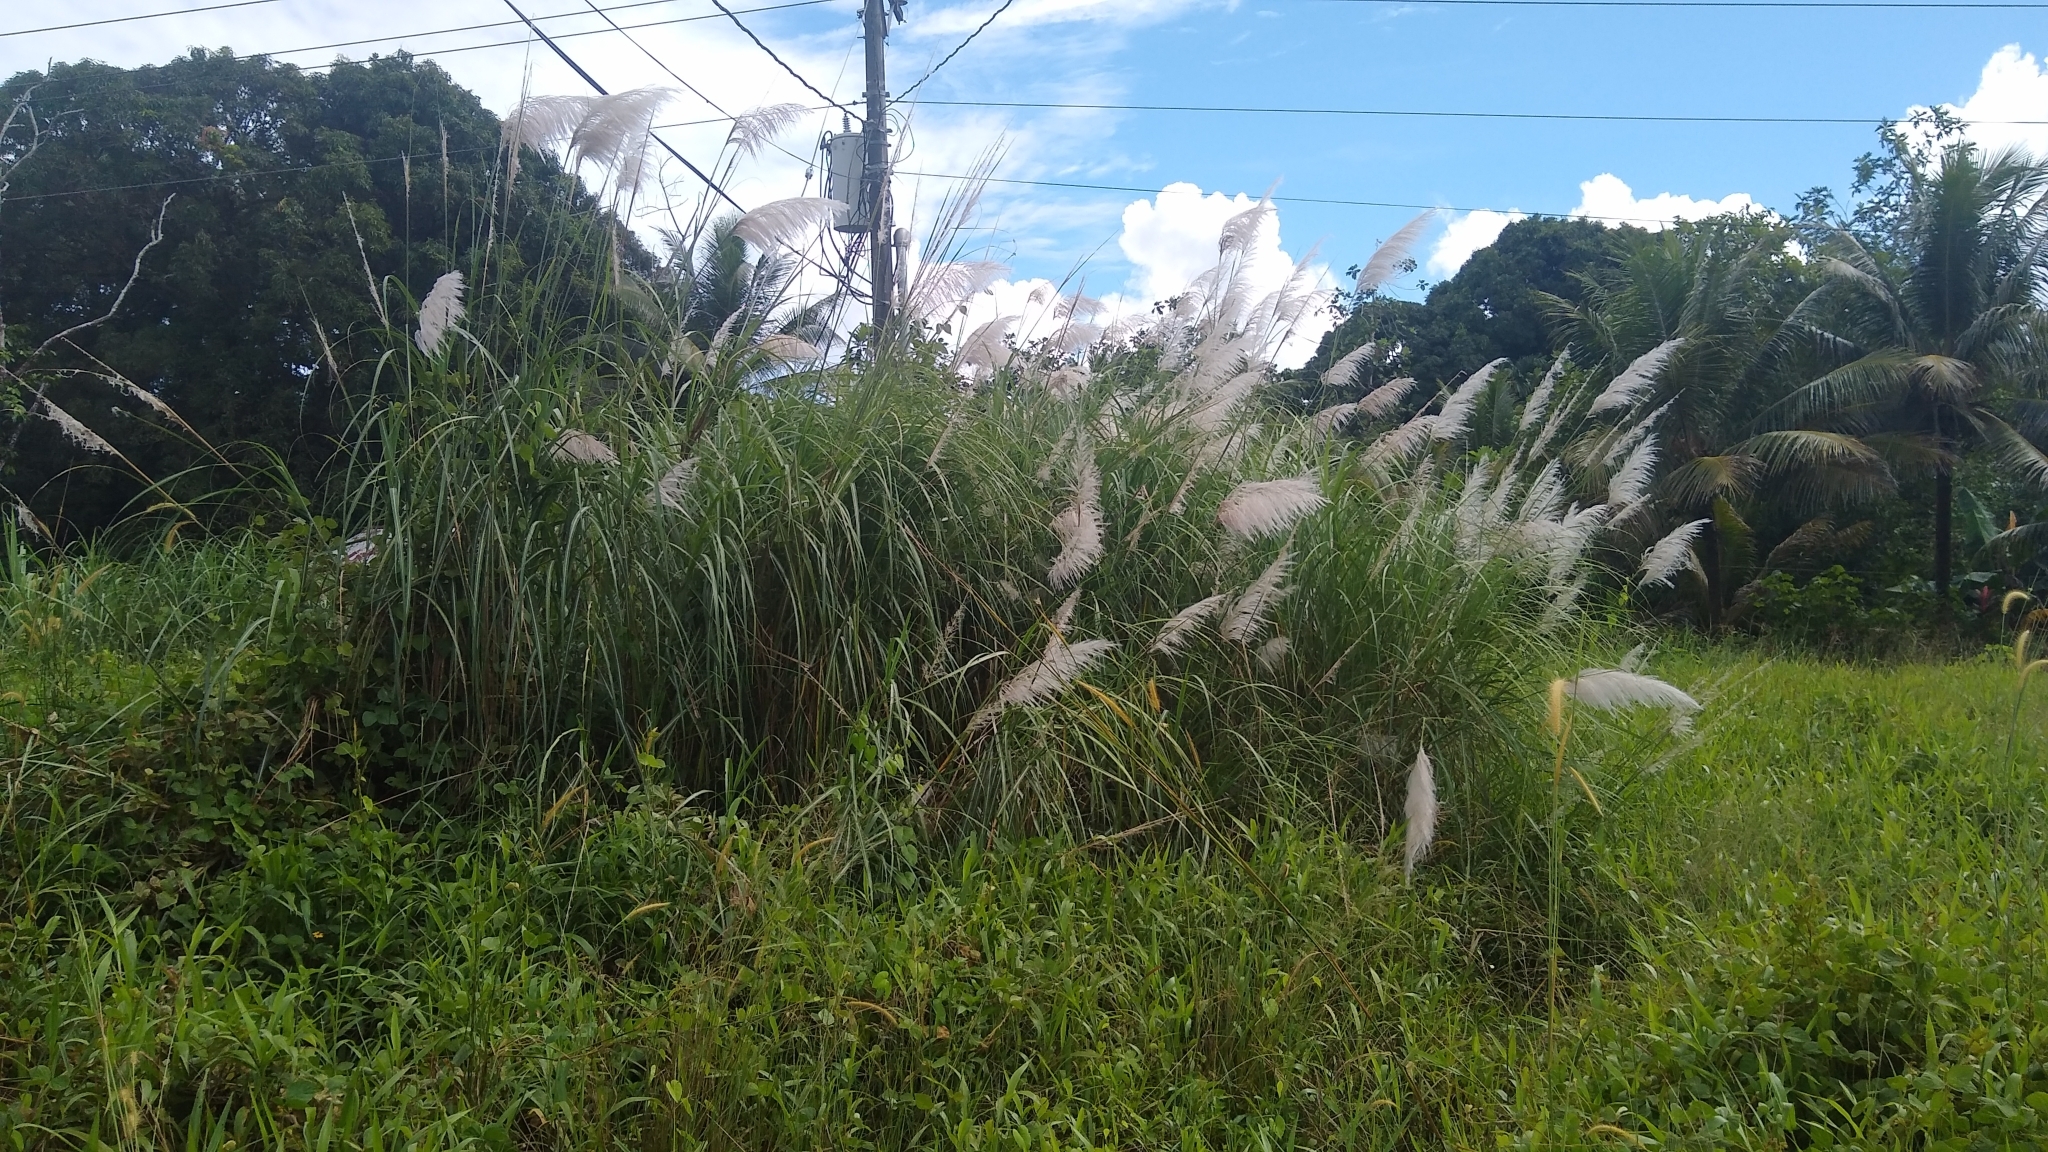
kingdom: Plantae
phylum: Tracheophyta
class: Liliopsida
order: Poales
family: Poaceae
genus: Saccharum
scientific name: Saccharum spontaneum
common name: Wild sugarcane
